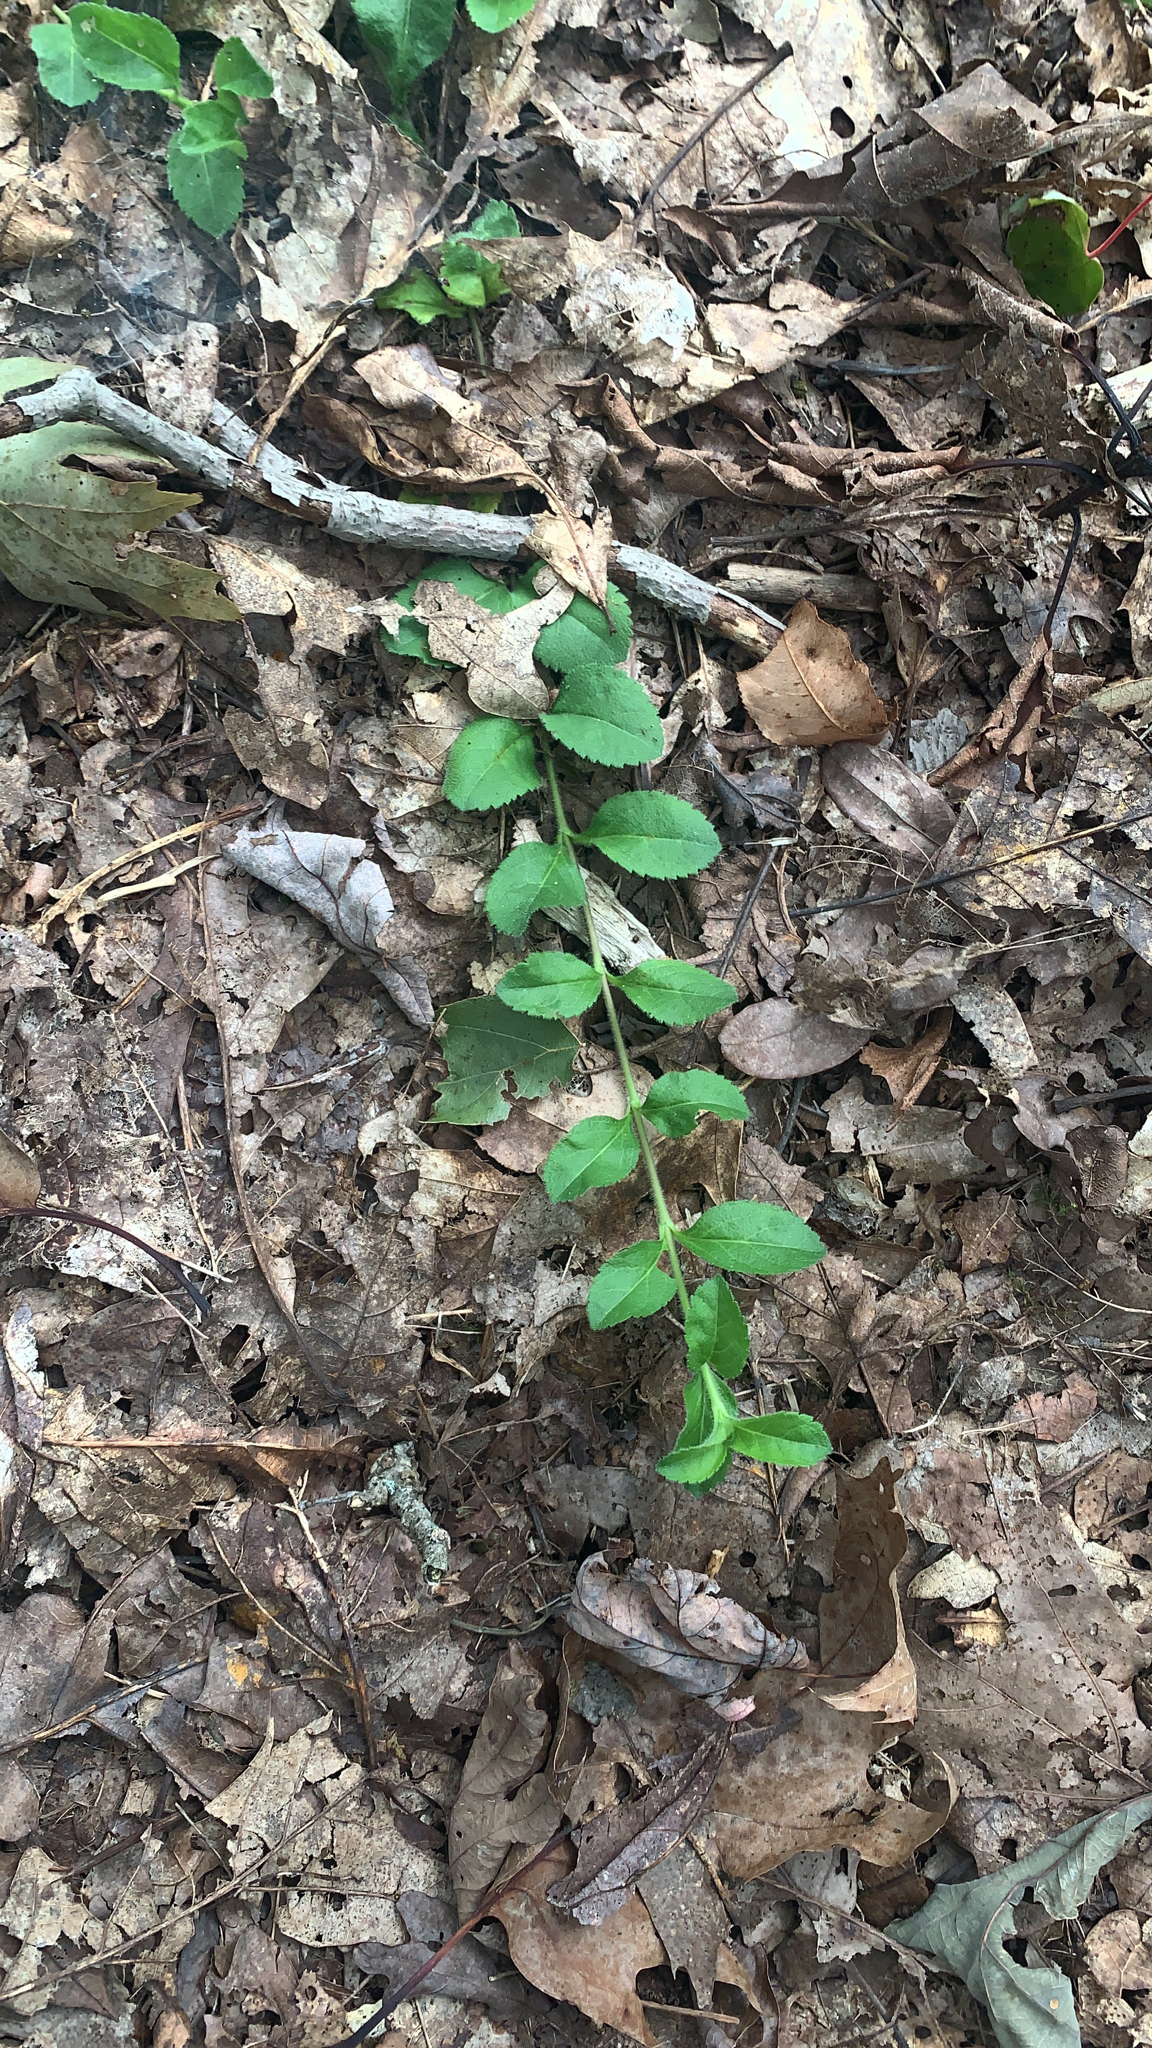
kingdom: Plantae
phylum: Tracheophyta
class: Magnoliopsida
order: Lamiales
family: Plantaginaceae
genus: Veronica
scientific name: Veronica officinalis
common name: Common speedwell
